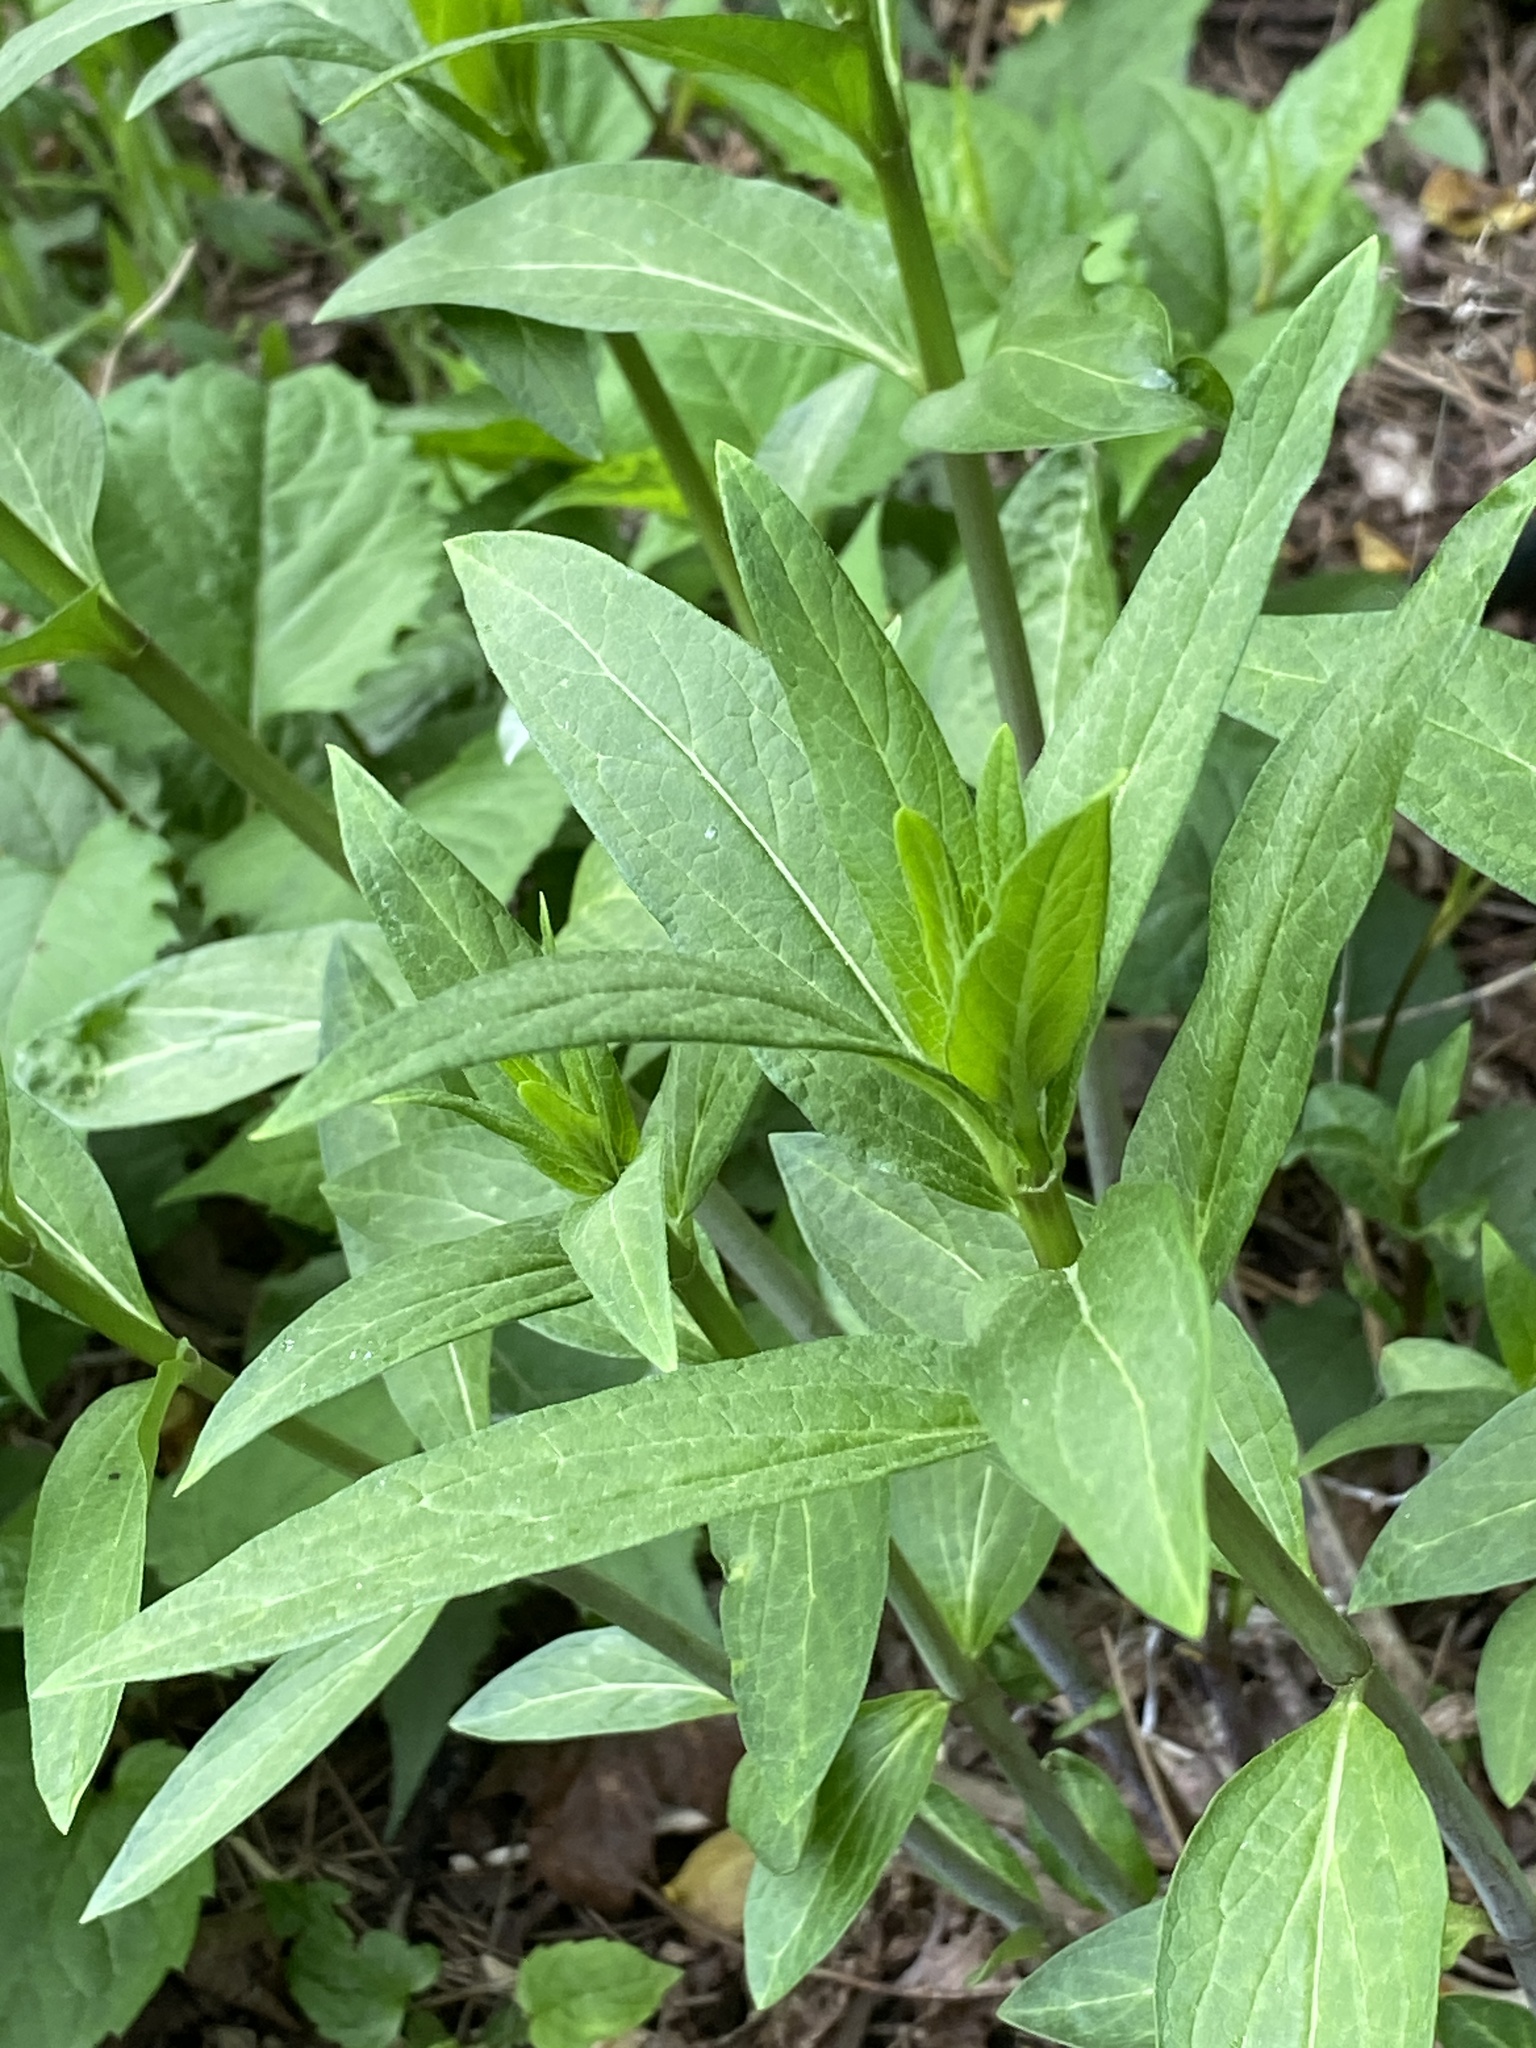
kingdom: Plantae
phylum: Tracheophyta
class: Magnoliopsida
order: Gentianales
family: Apocynaceae
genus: Asclepias
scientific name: Asclepias incarnata
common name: Swamp milkweed
